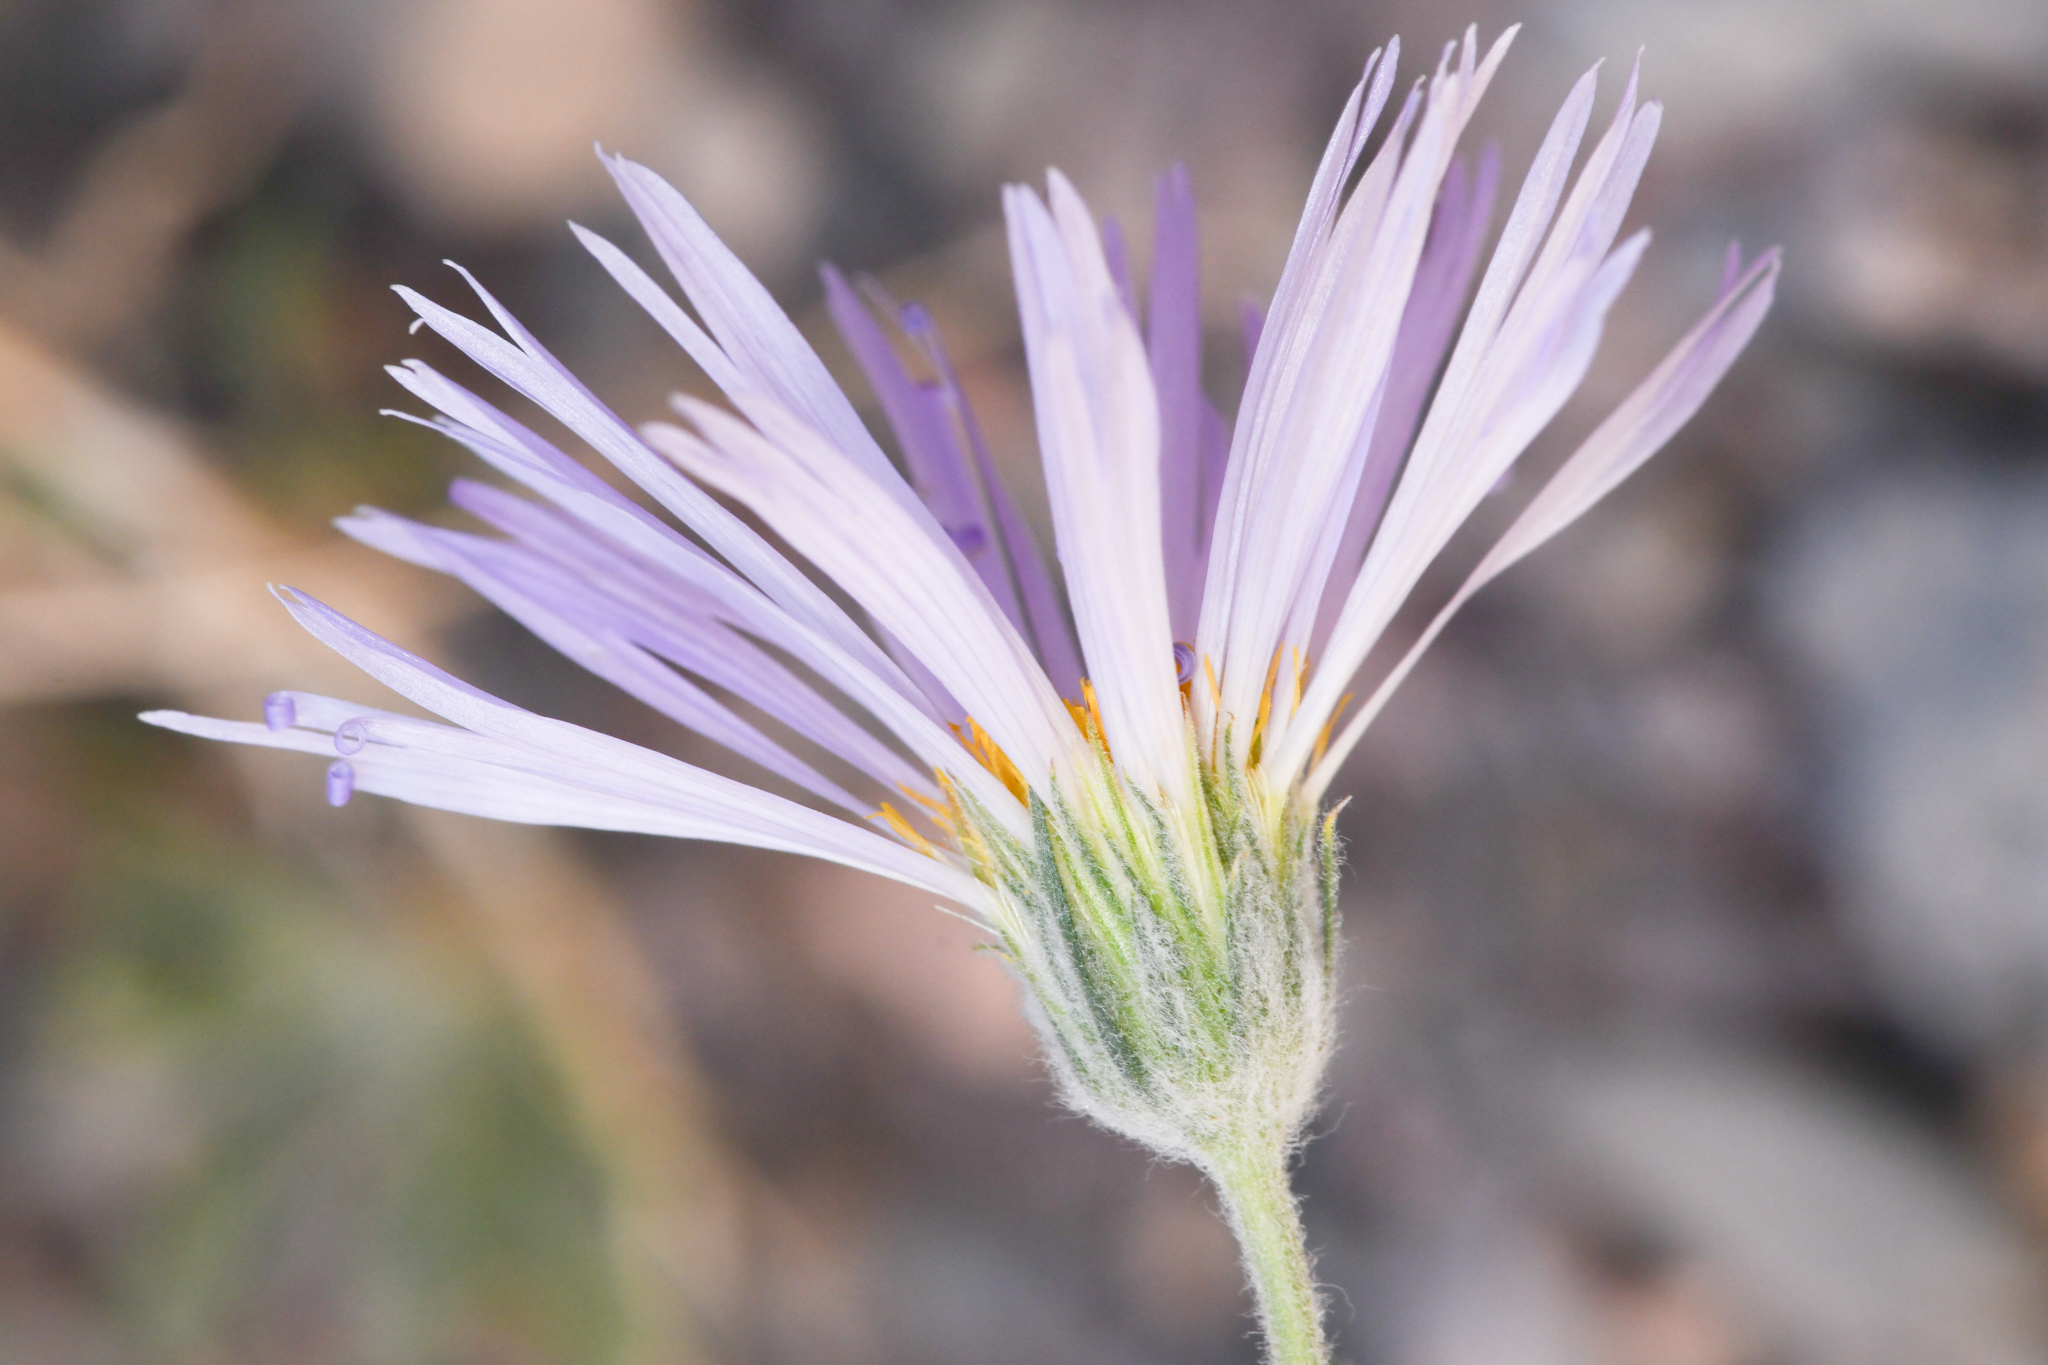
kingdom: Plantae
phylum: Tracheophyta
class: Magnoliopsida
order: Asterales
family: Asteraceae
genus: Xylorhiza
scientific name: Xylorhiza tortifolia
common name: Hurt-leaf woody-aster
